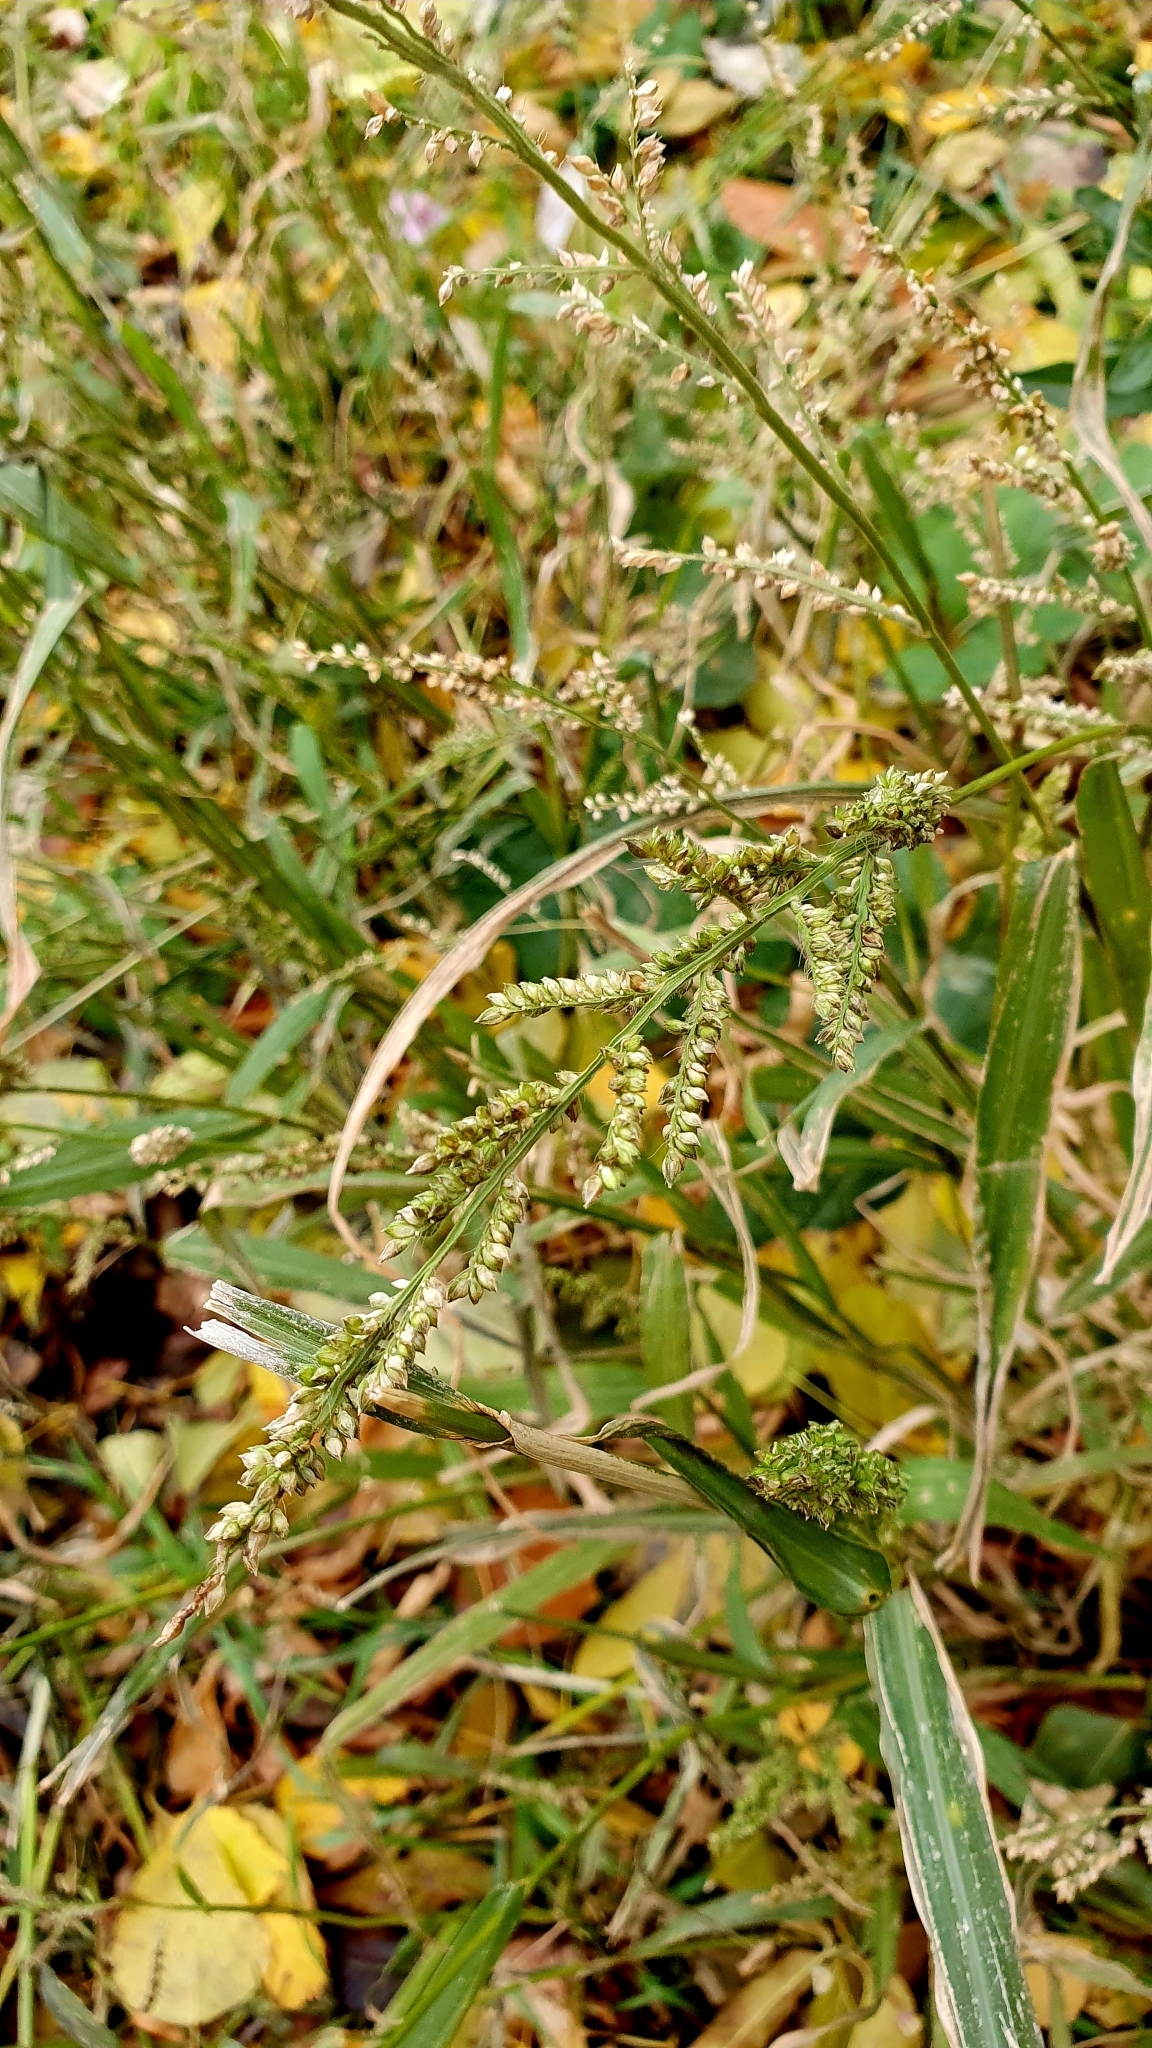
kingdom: Plantae
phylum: Tracheophyta
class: Liliopsida
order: Poales
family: Poaceae
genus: Echinochloa
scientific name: Echinochloa crus-galli
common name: Cockspur
